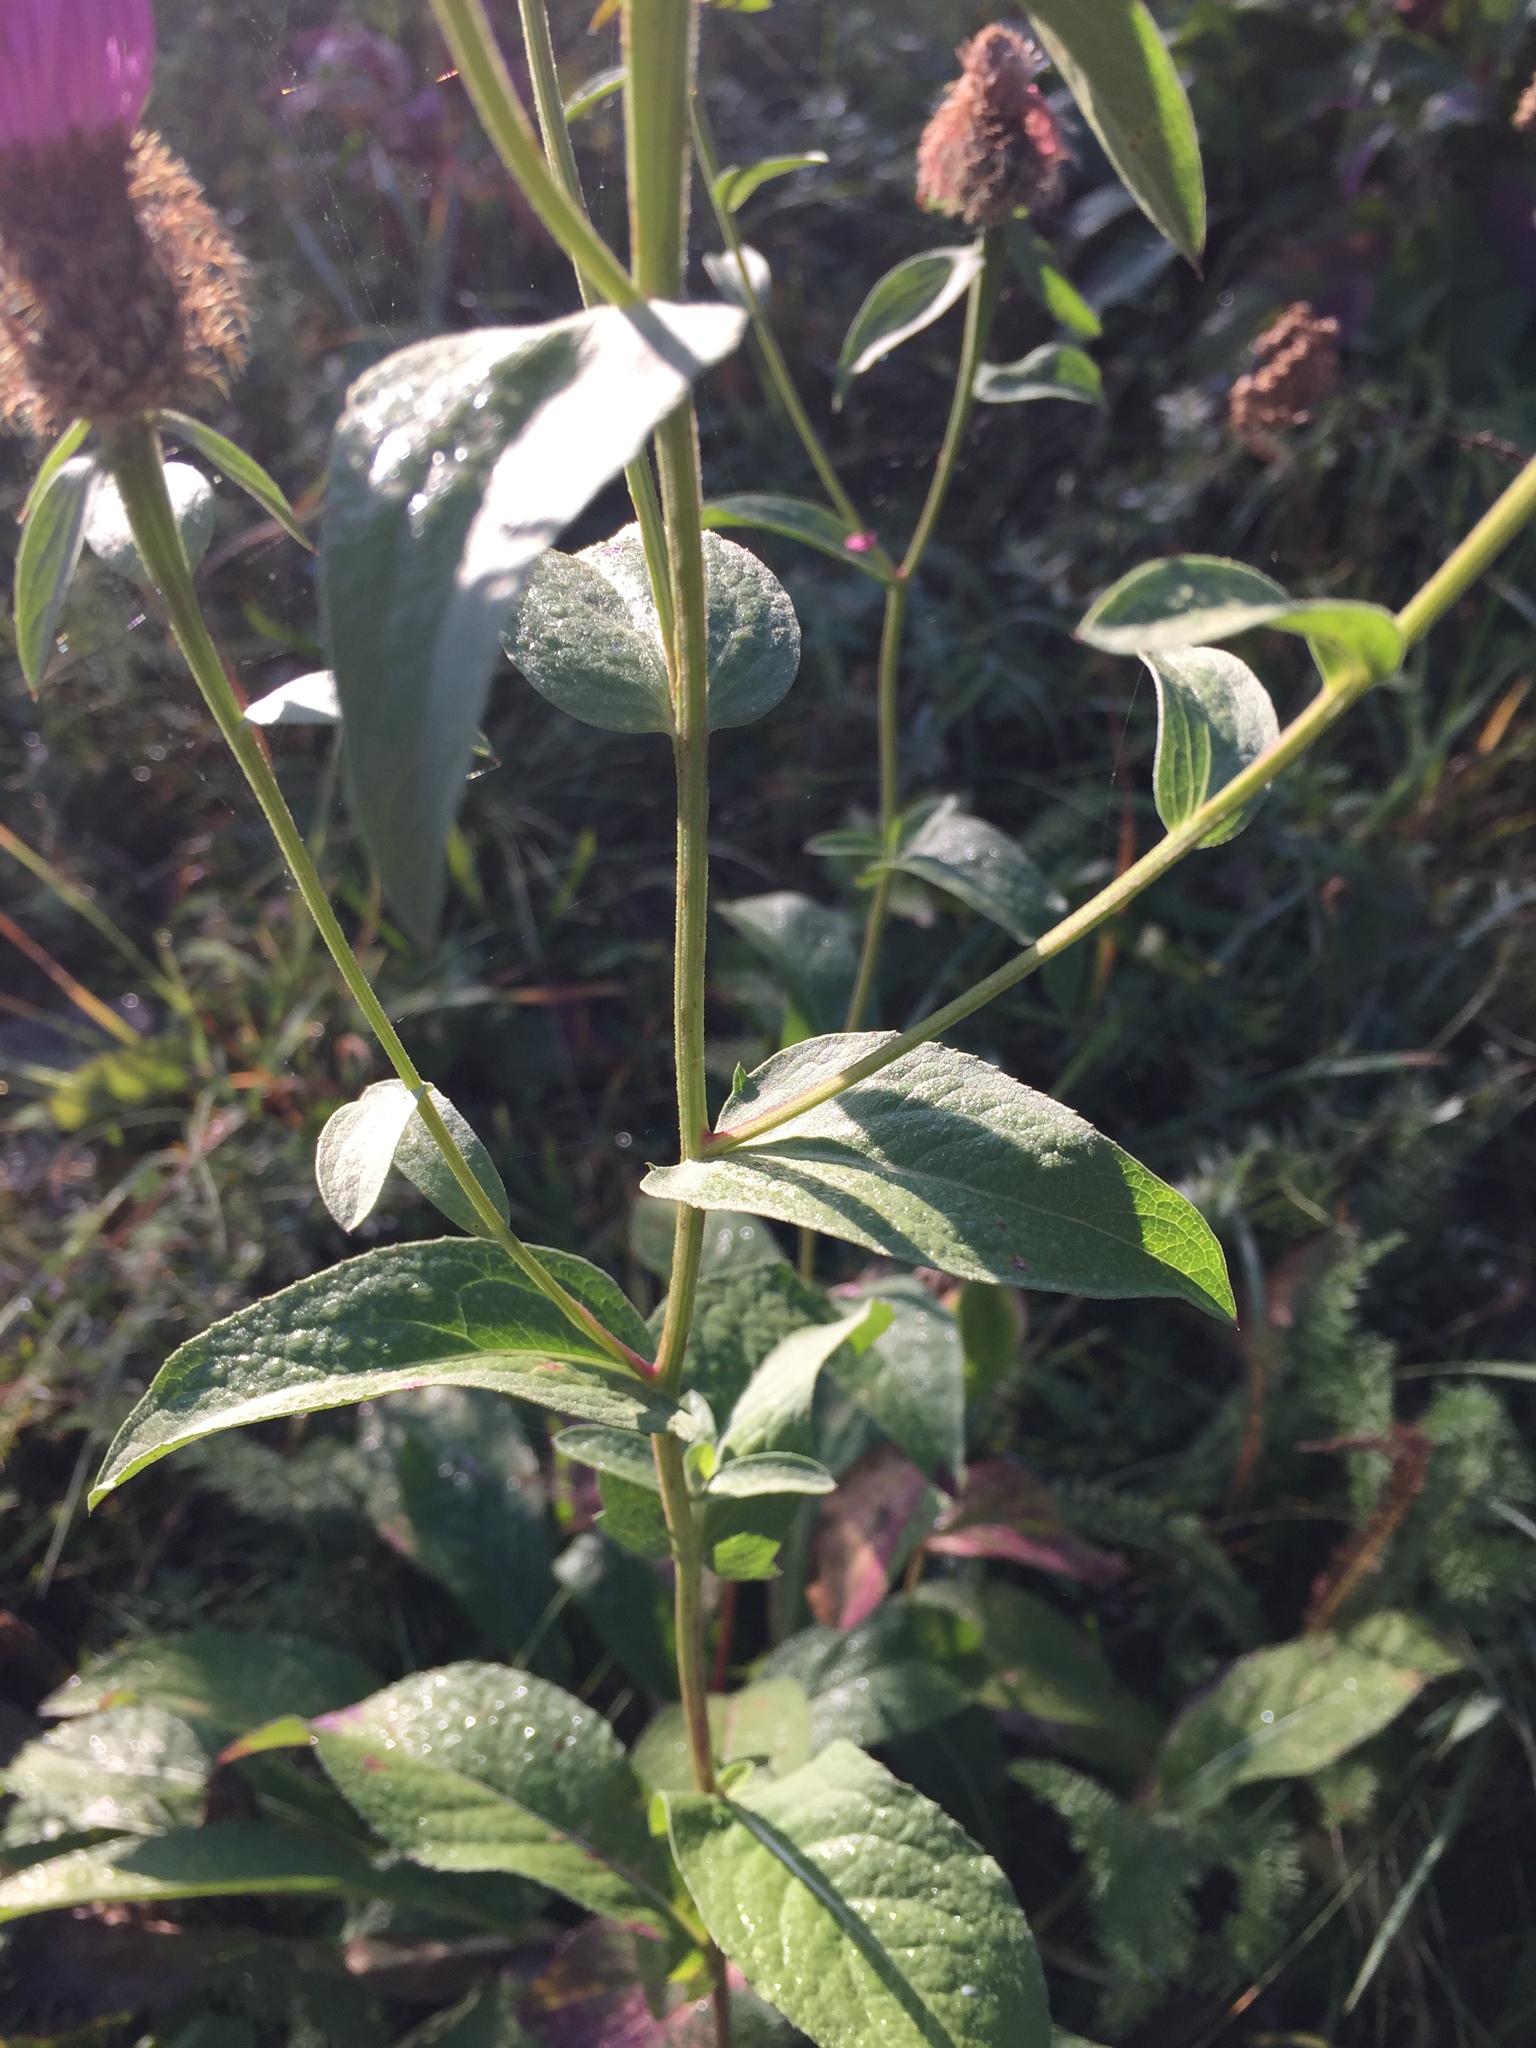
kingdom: Plantae
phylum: Tracheophyta
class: Magnoliopsida
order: Asterales
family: Asteraceae
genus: Centaurea
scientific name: Centaurea nervosa
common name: Singleflower knapweed
